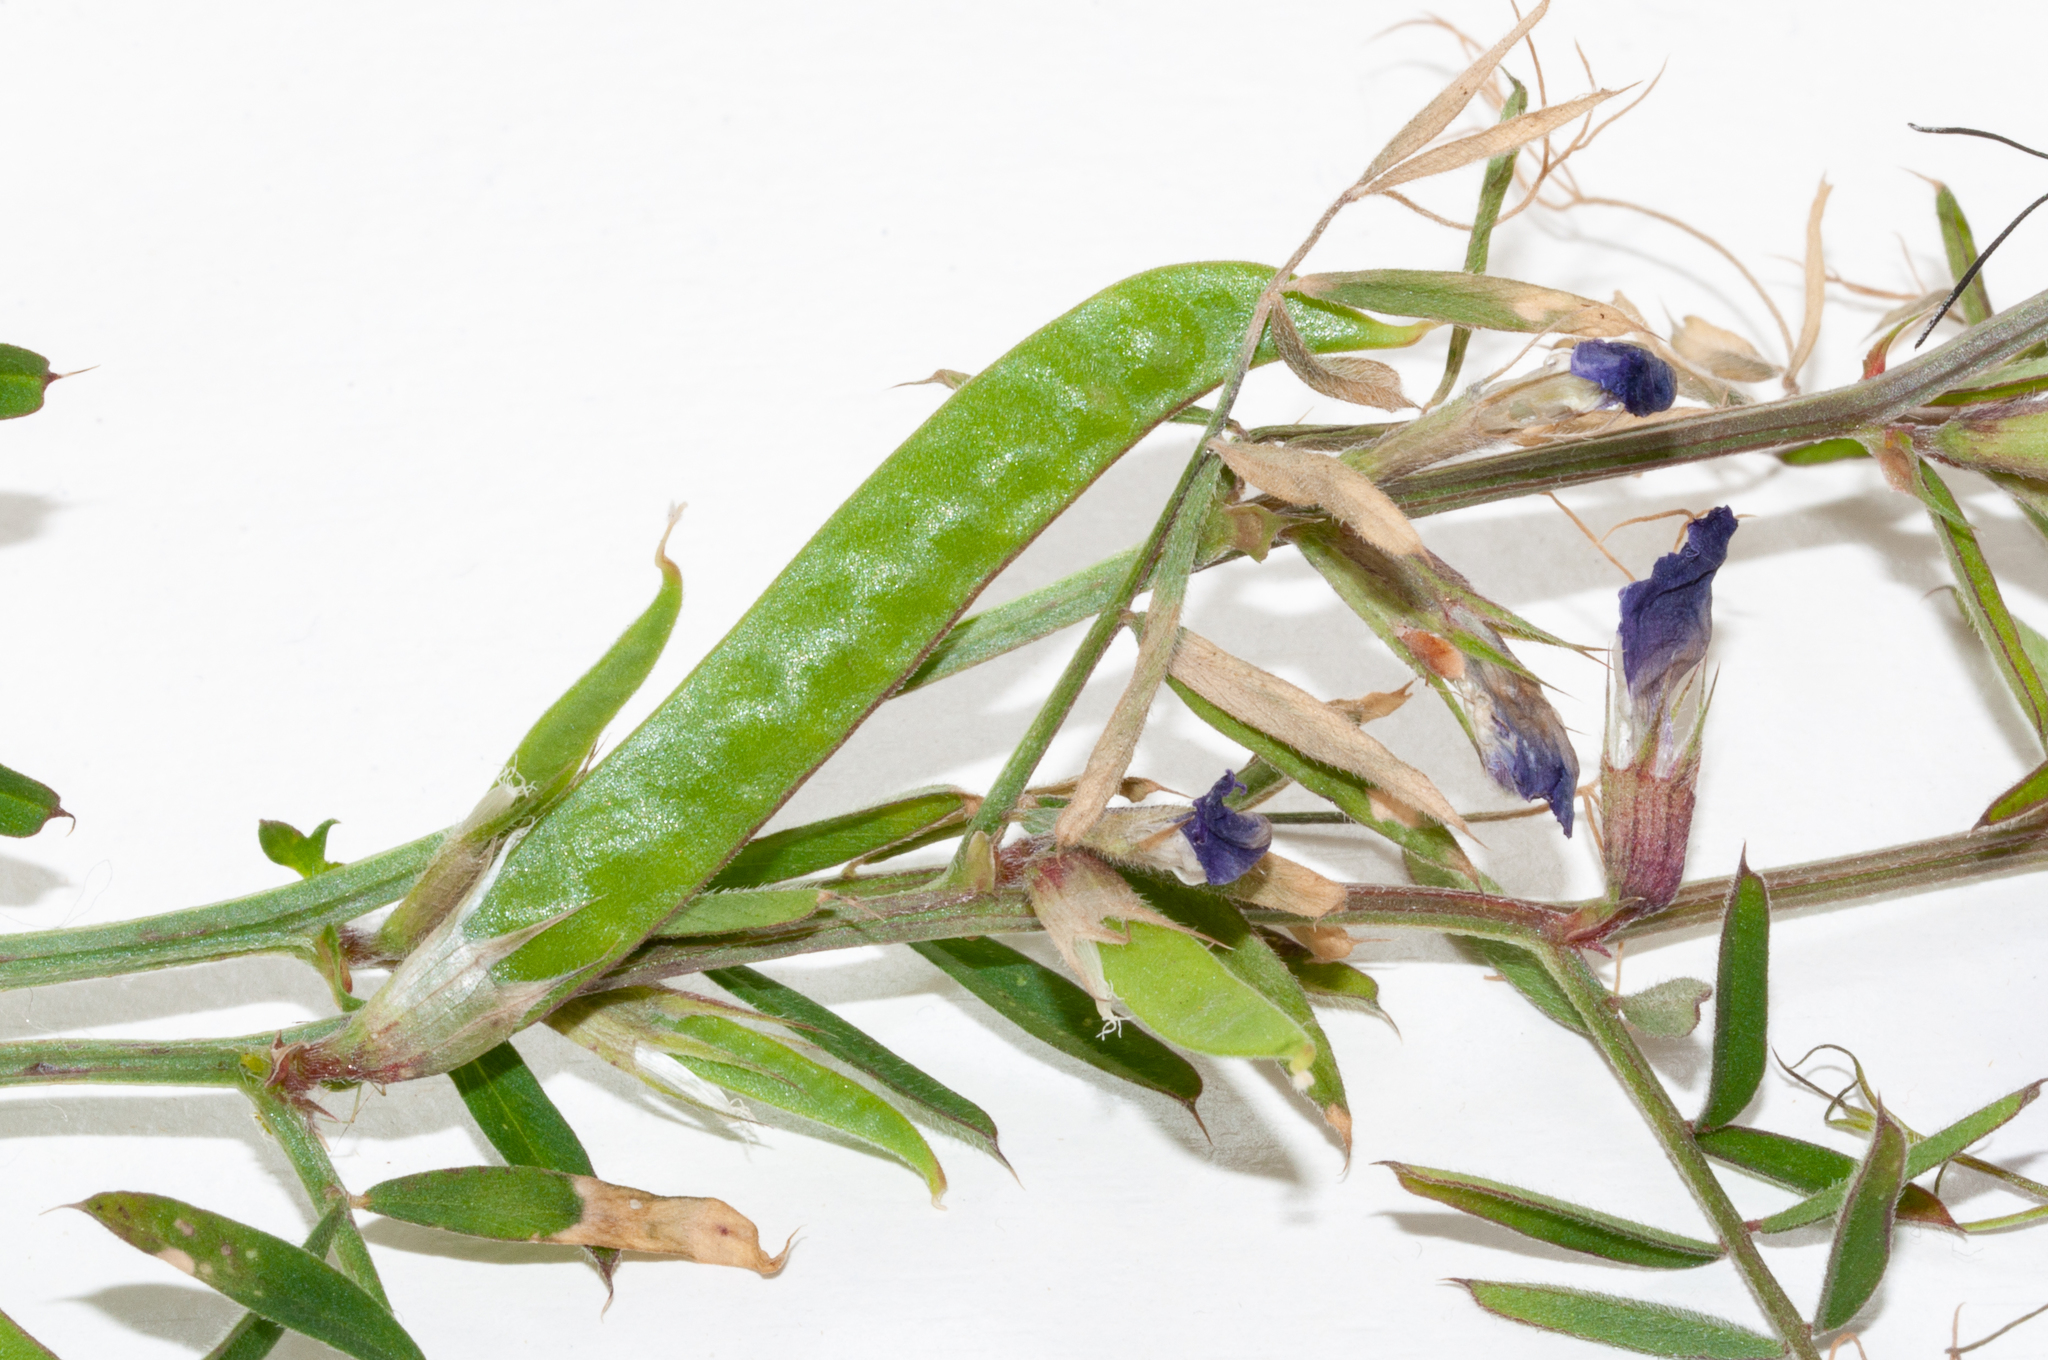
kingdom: Plantae
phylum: Tracheophyta
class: Magnoliopsida
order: Fabales
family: Fabaceae
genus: Vicia
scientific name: Vicia sativa
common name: Garden vetch
